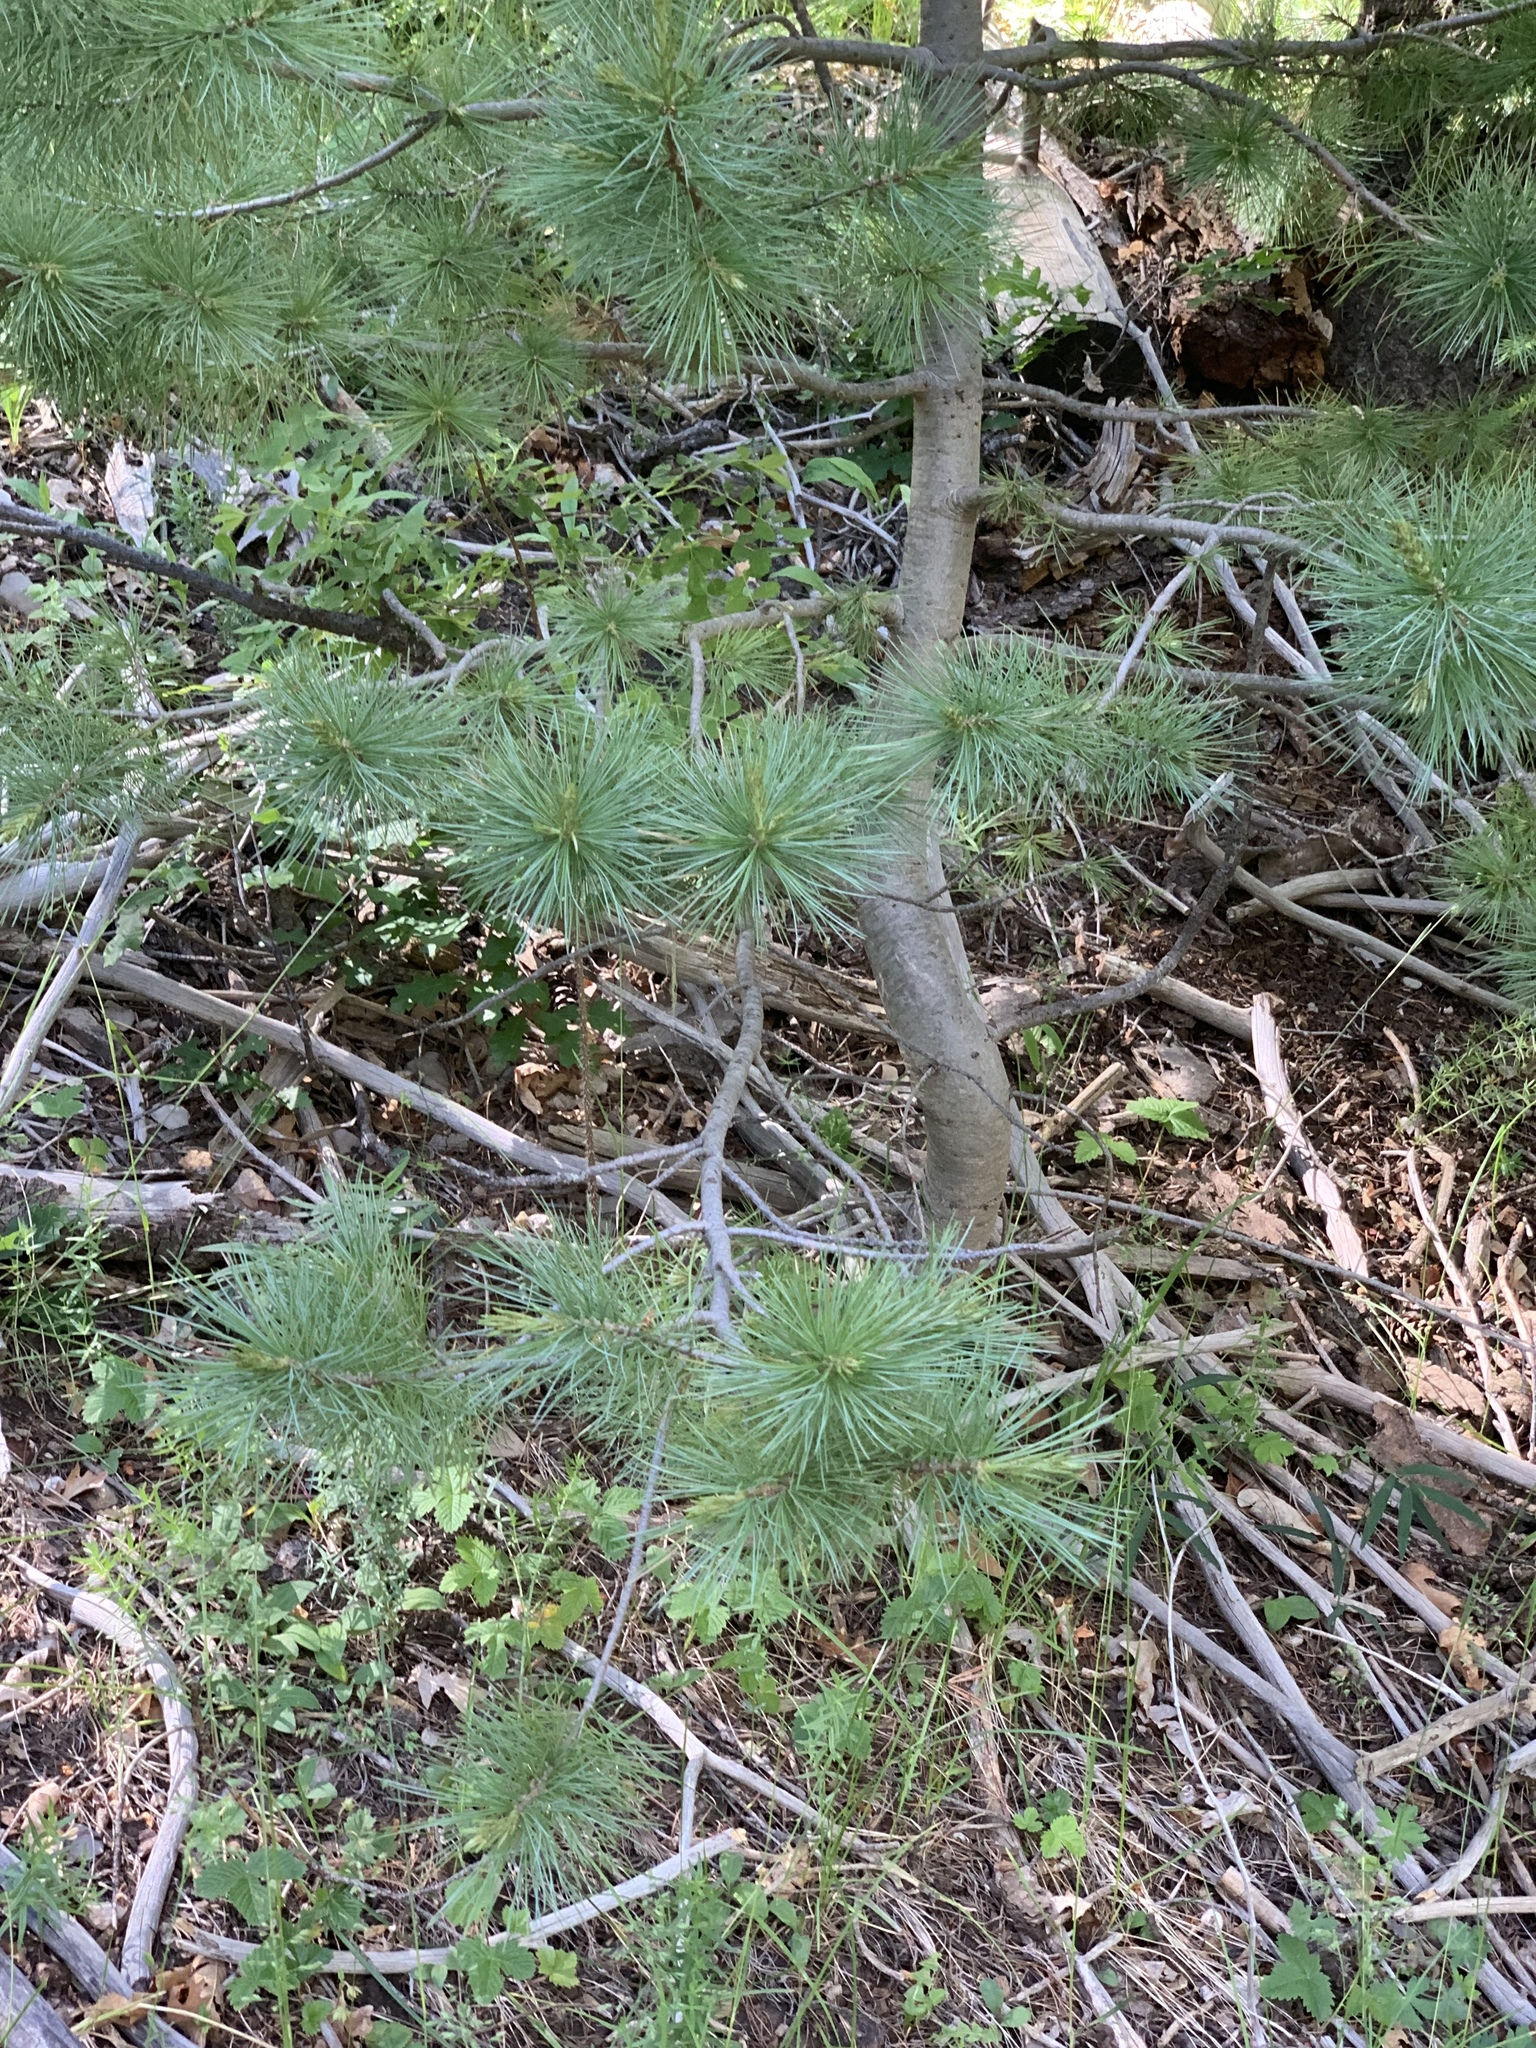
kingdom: Plantae
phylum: Tracheophyta
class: Pinopsida
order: Pinales
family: Pinaceae
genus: Pinus
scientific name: Pinus strobiformis
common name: Southwestern white pine
